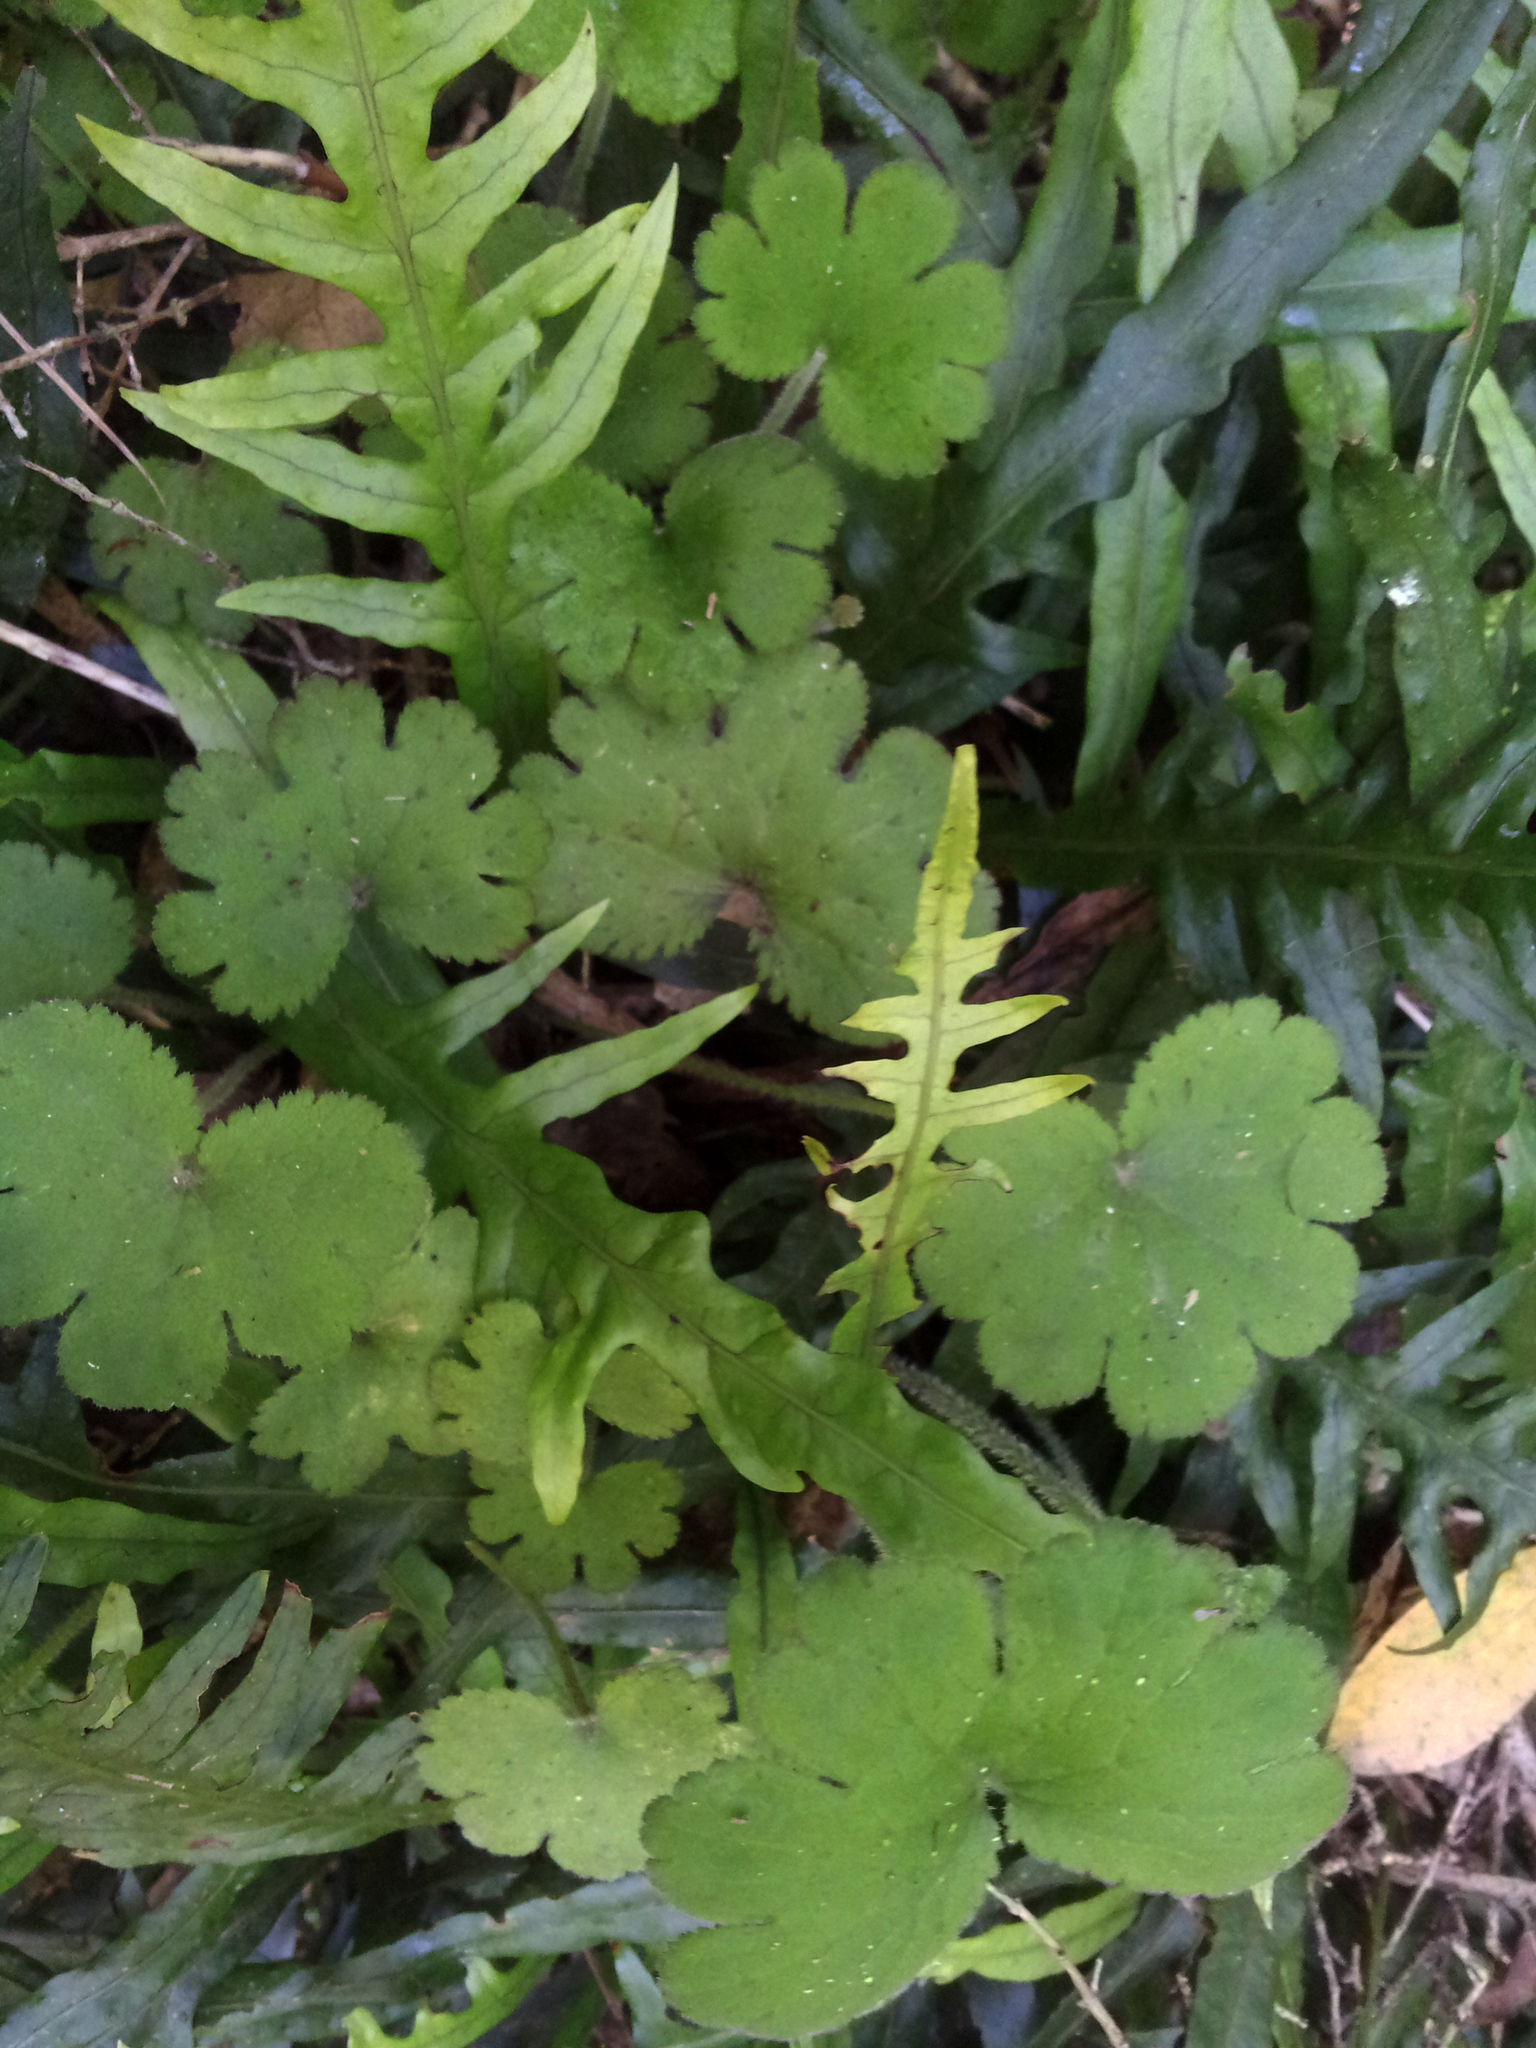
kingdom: Plantae
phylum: Tracheophyta
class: Magnoliopsida
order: Apiales
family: Araliaceae
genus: Hydrocotyle
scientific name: Hydrocotyle elongata
